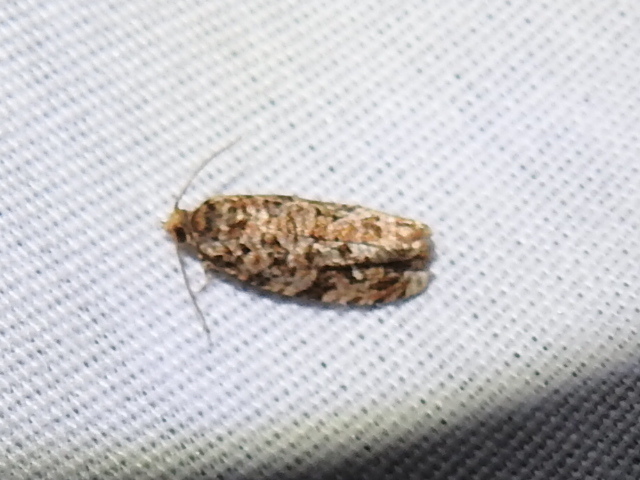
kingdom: Animalia
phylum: Arthropoda
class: Insecta
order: Lepidoptera
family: Tortricidae
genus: Phaecasiophora
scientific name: Phaecasiophora niveiguttana
